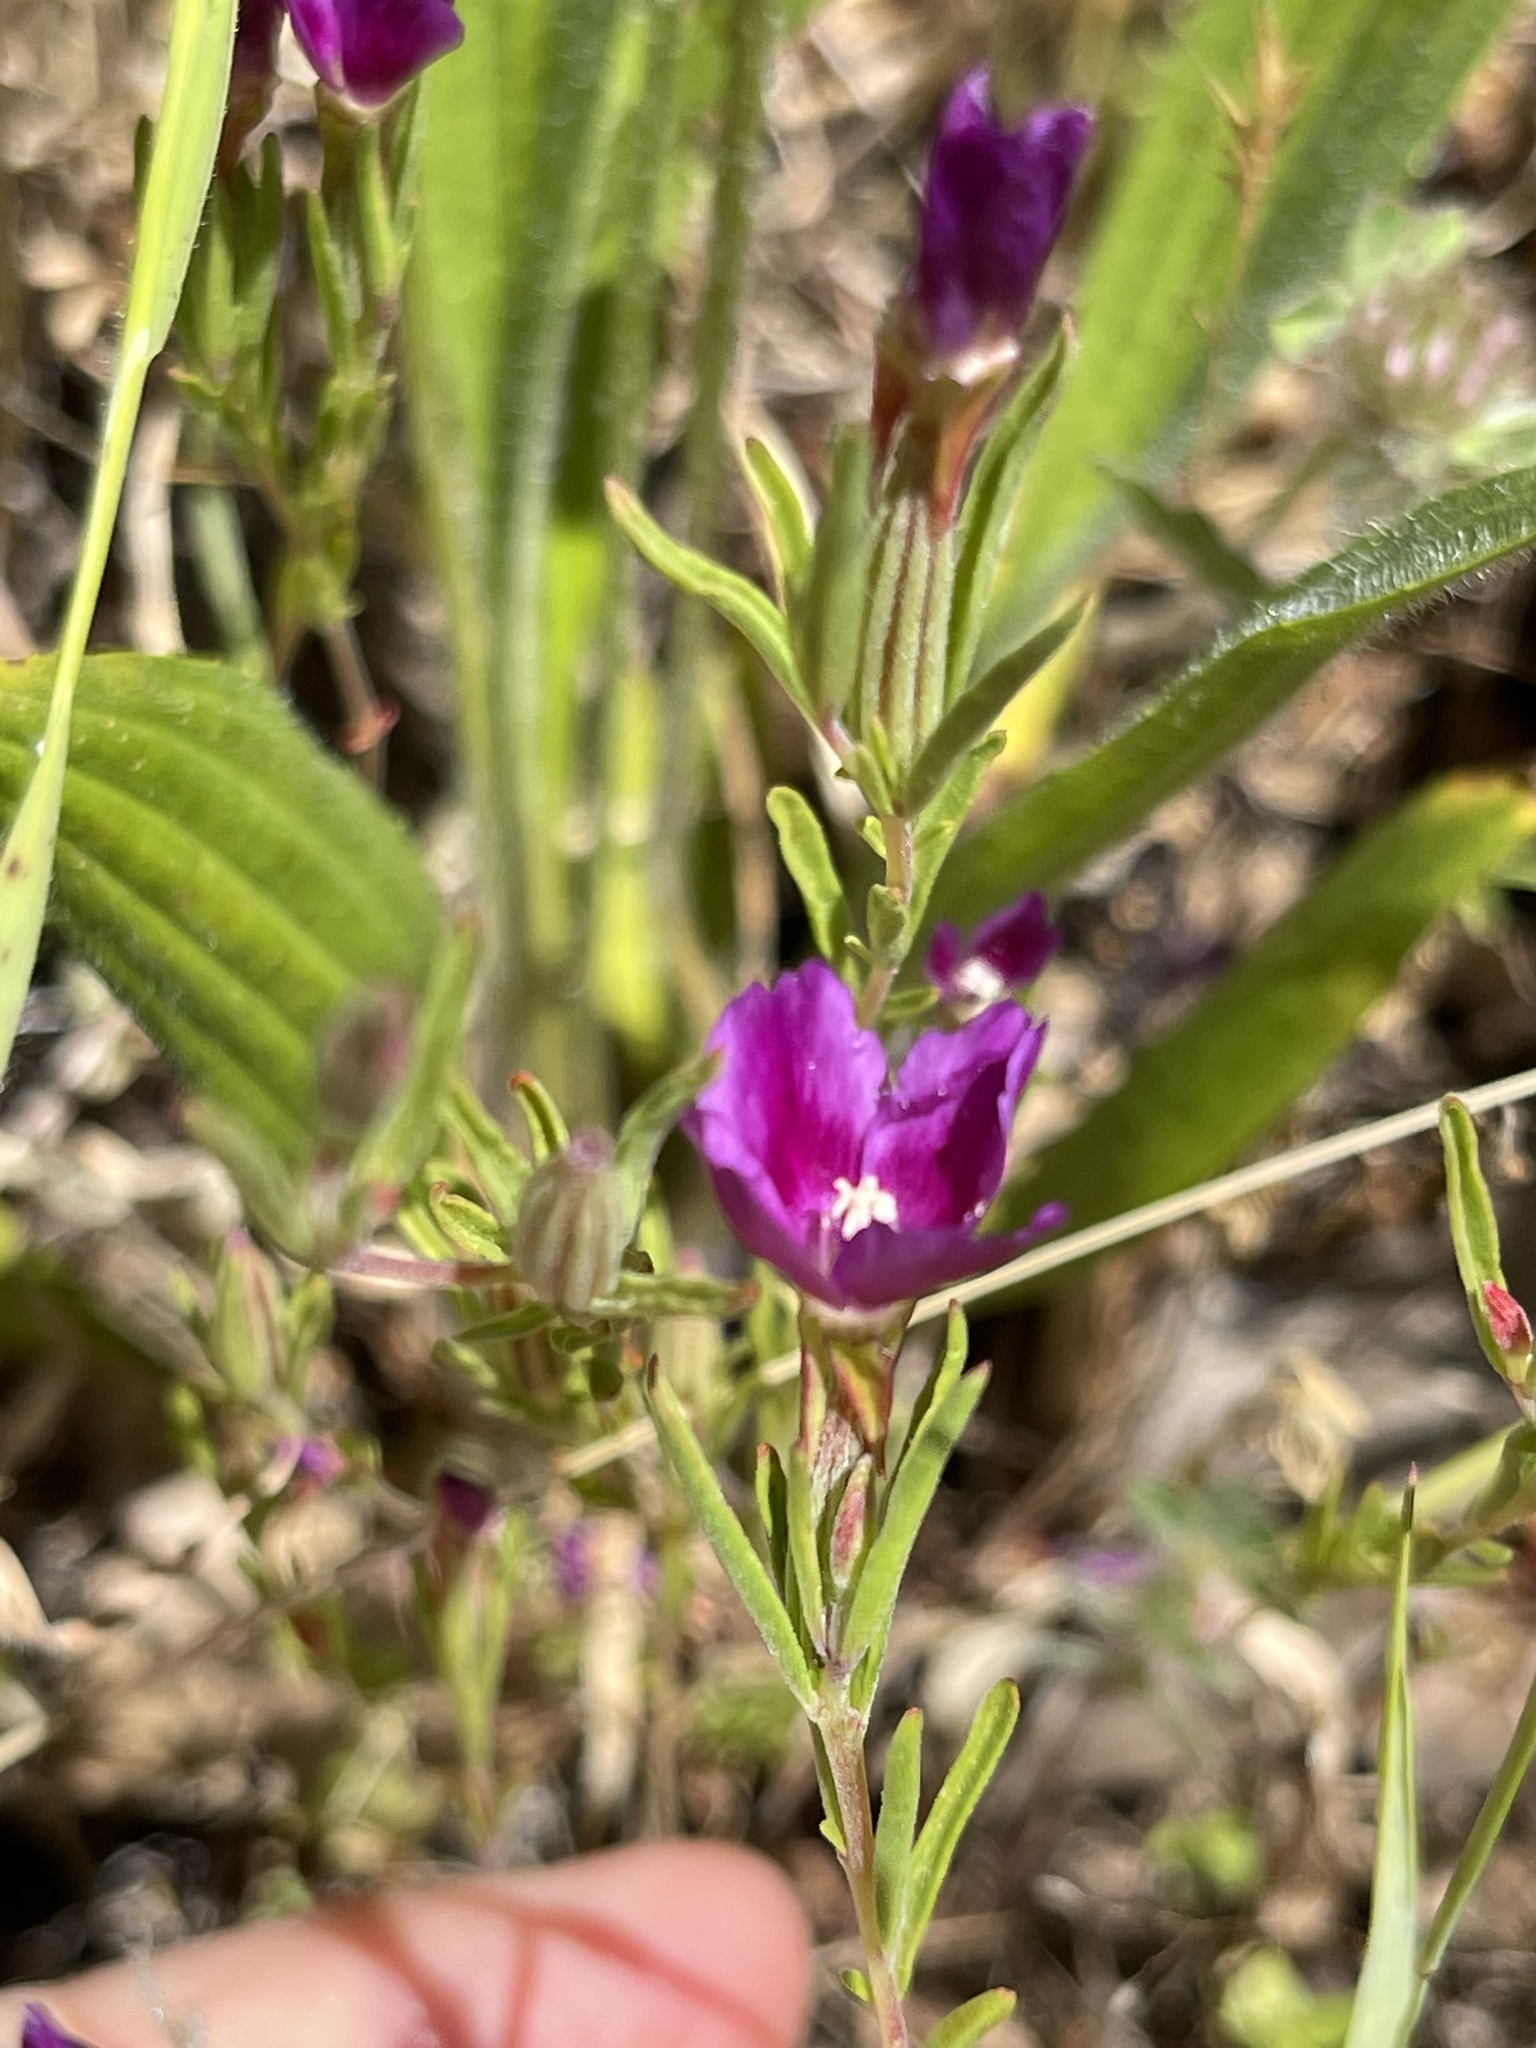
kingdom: Plantae
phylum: Tracheophyta
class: Magnoliopsida
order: Myrtales
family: Onagraceae
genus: Clarkia
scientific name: Clarkia purpurea
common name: Purple clarkia
